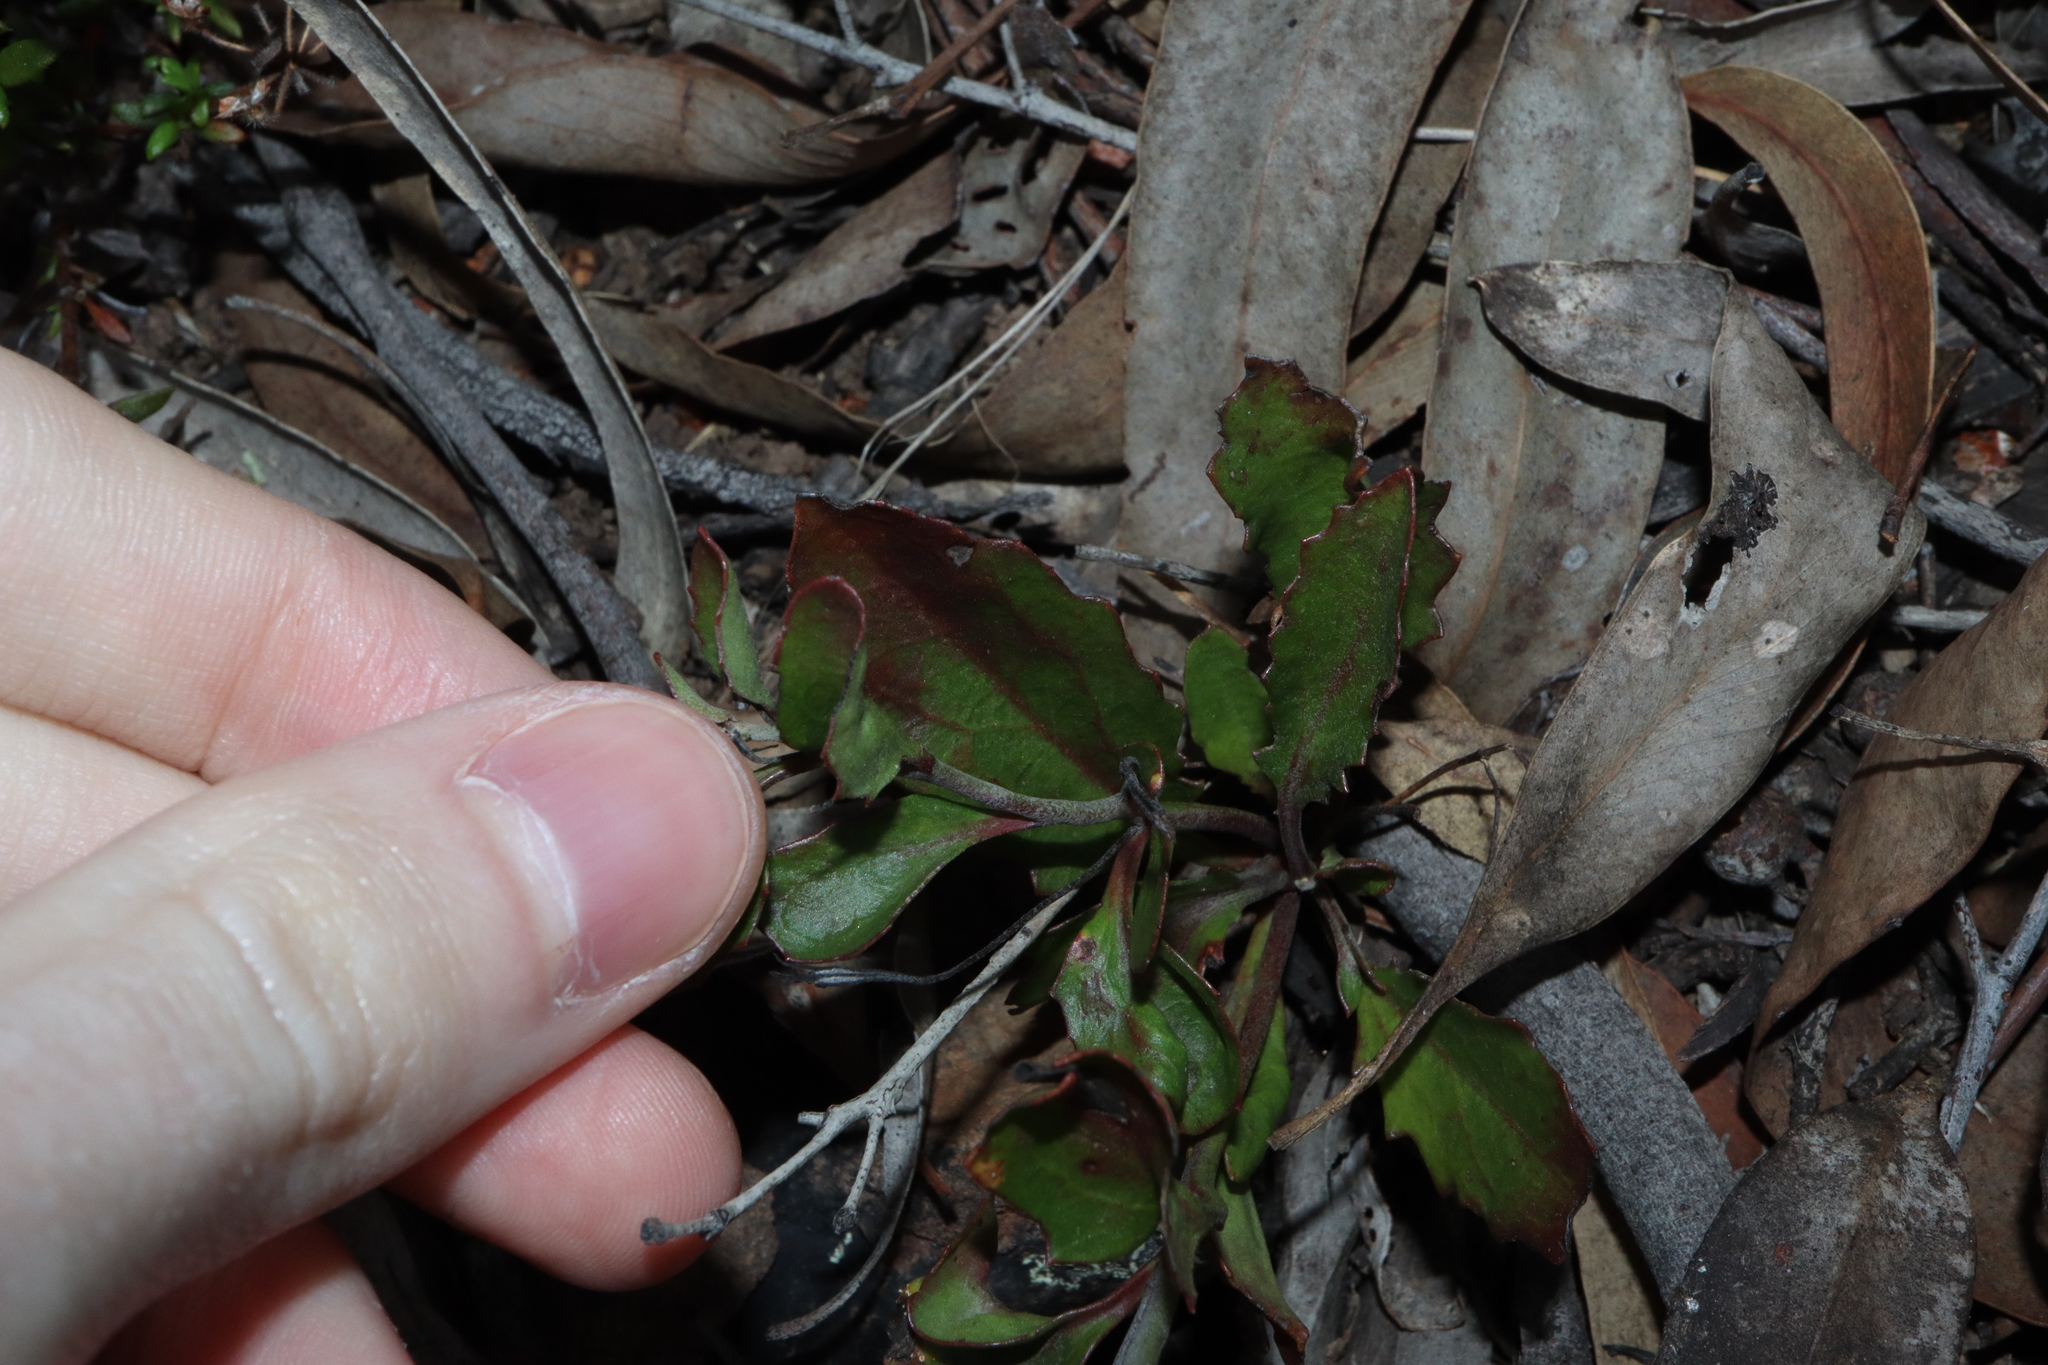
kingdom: Plantae
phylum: Tracheophyta
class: Magnoliopsida
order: Asterales
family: Goodeniaceae
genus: Goodenia
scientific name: Goodenia hederacea
